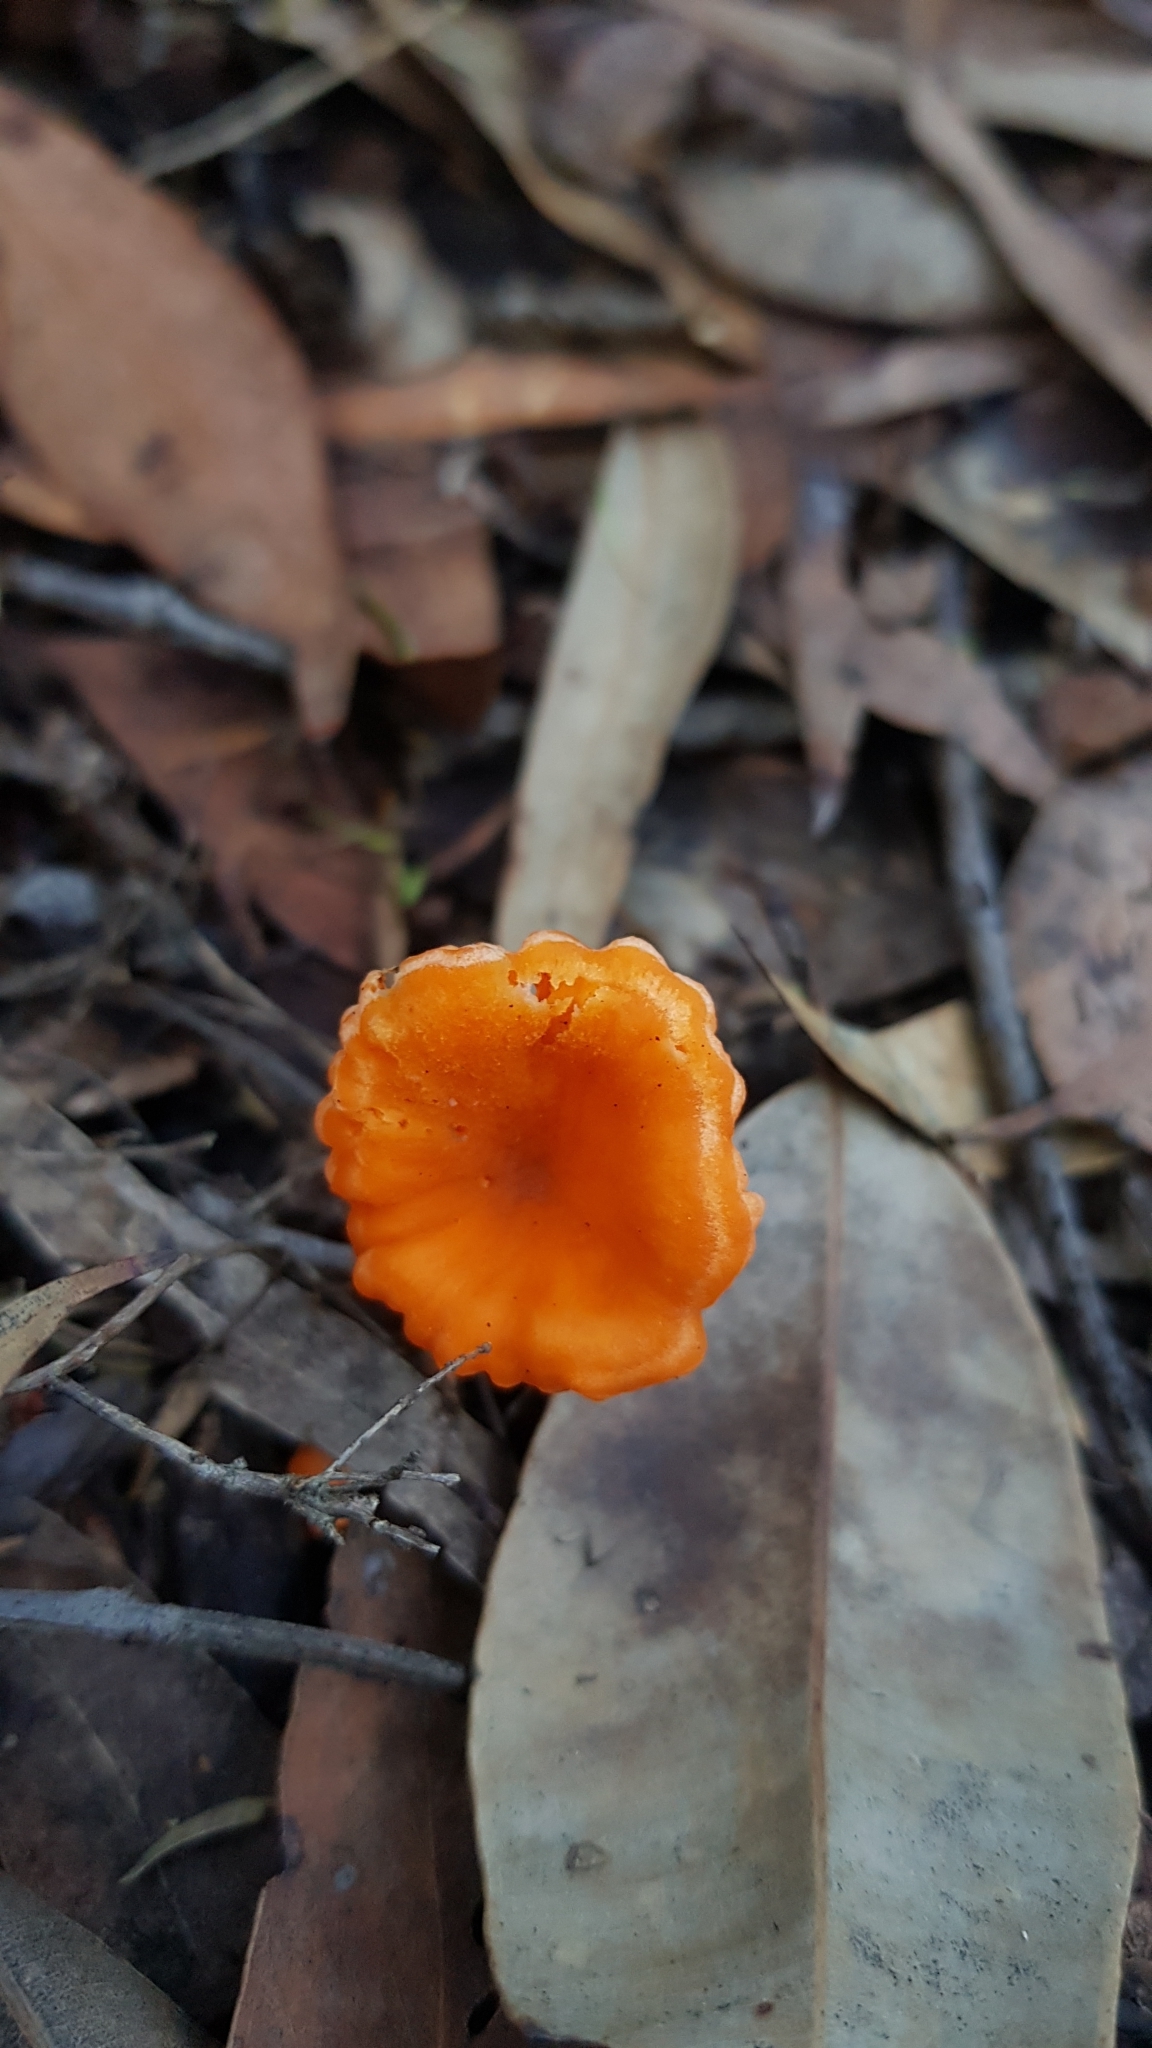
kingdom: Fungi
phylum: Basidiomycota
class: Agaricomycetes
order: Cantharellales
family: Hydnaceae
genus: Cantharellus
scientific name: Cantharellus
